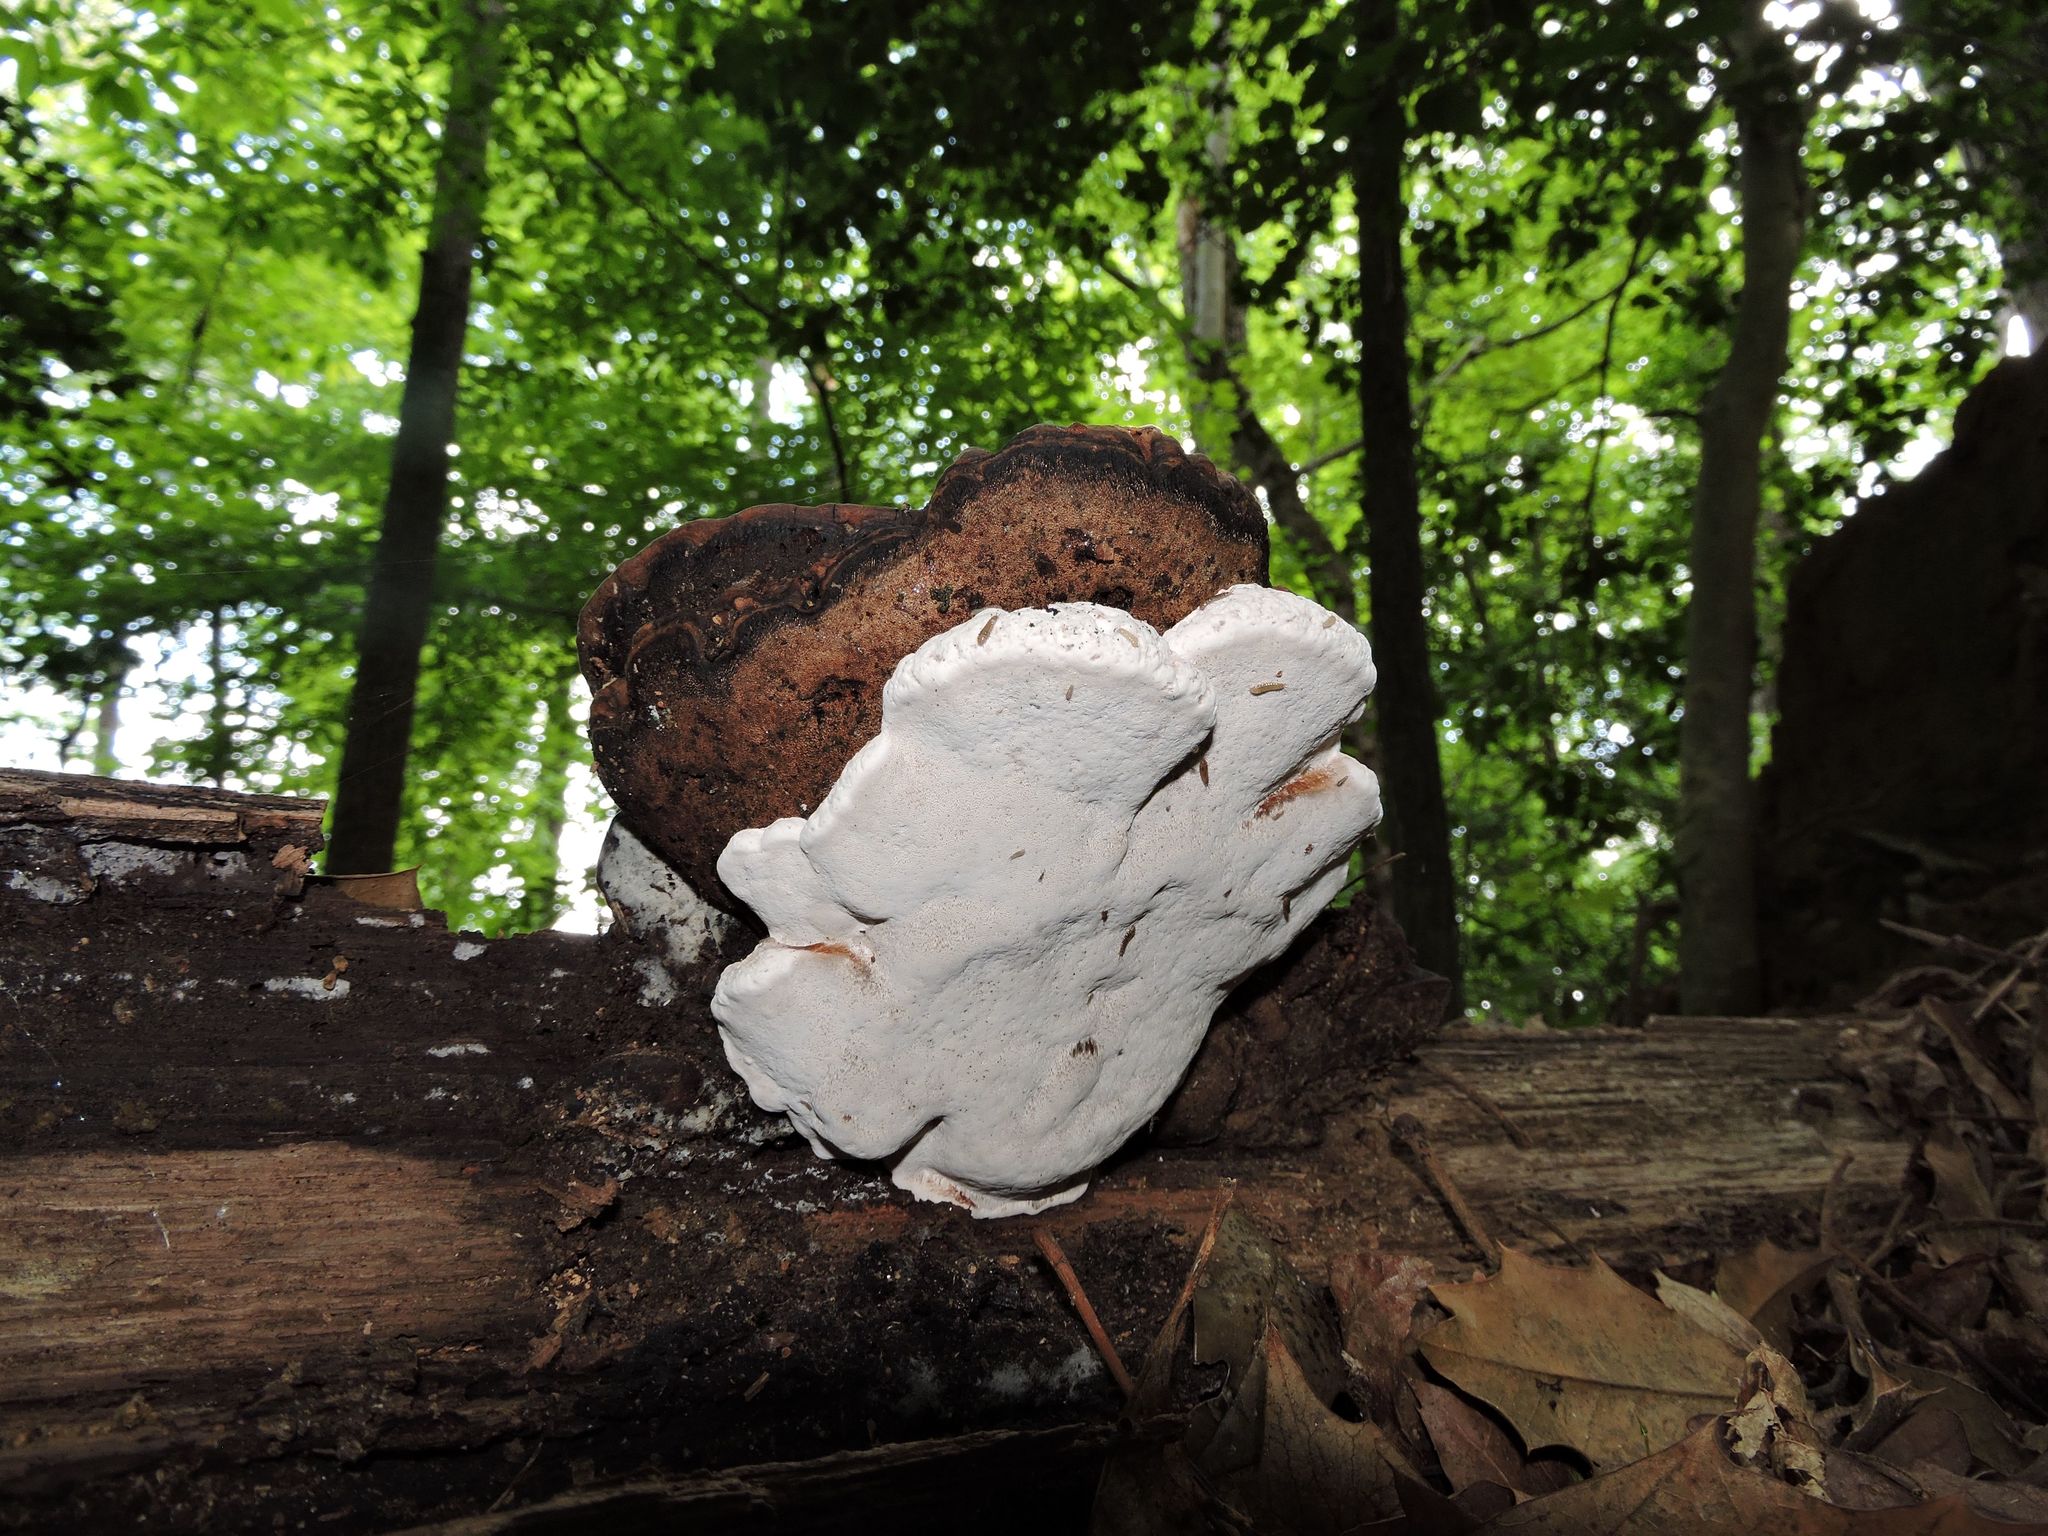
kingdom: Fungi
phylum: Basidiomycota
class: Agaricomycetes
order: Polyporales
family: Polyporaceae
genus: Ganoderma
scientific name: Ganoderma applanatum
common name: Artist's bracket
